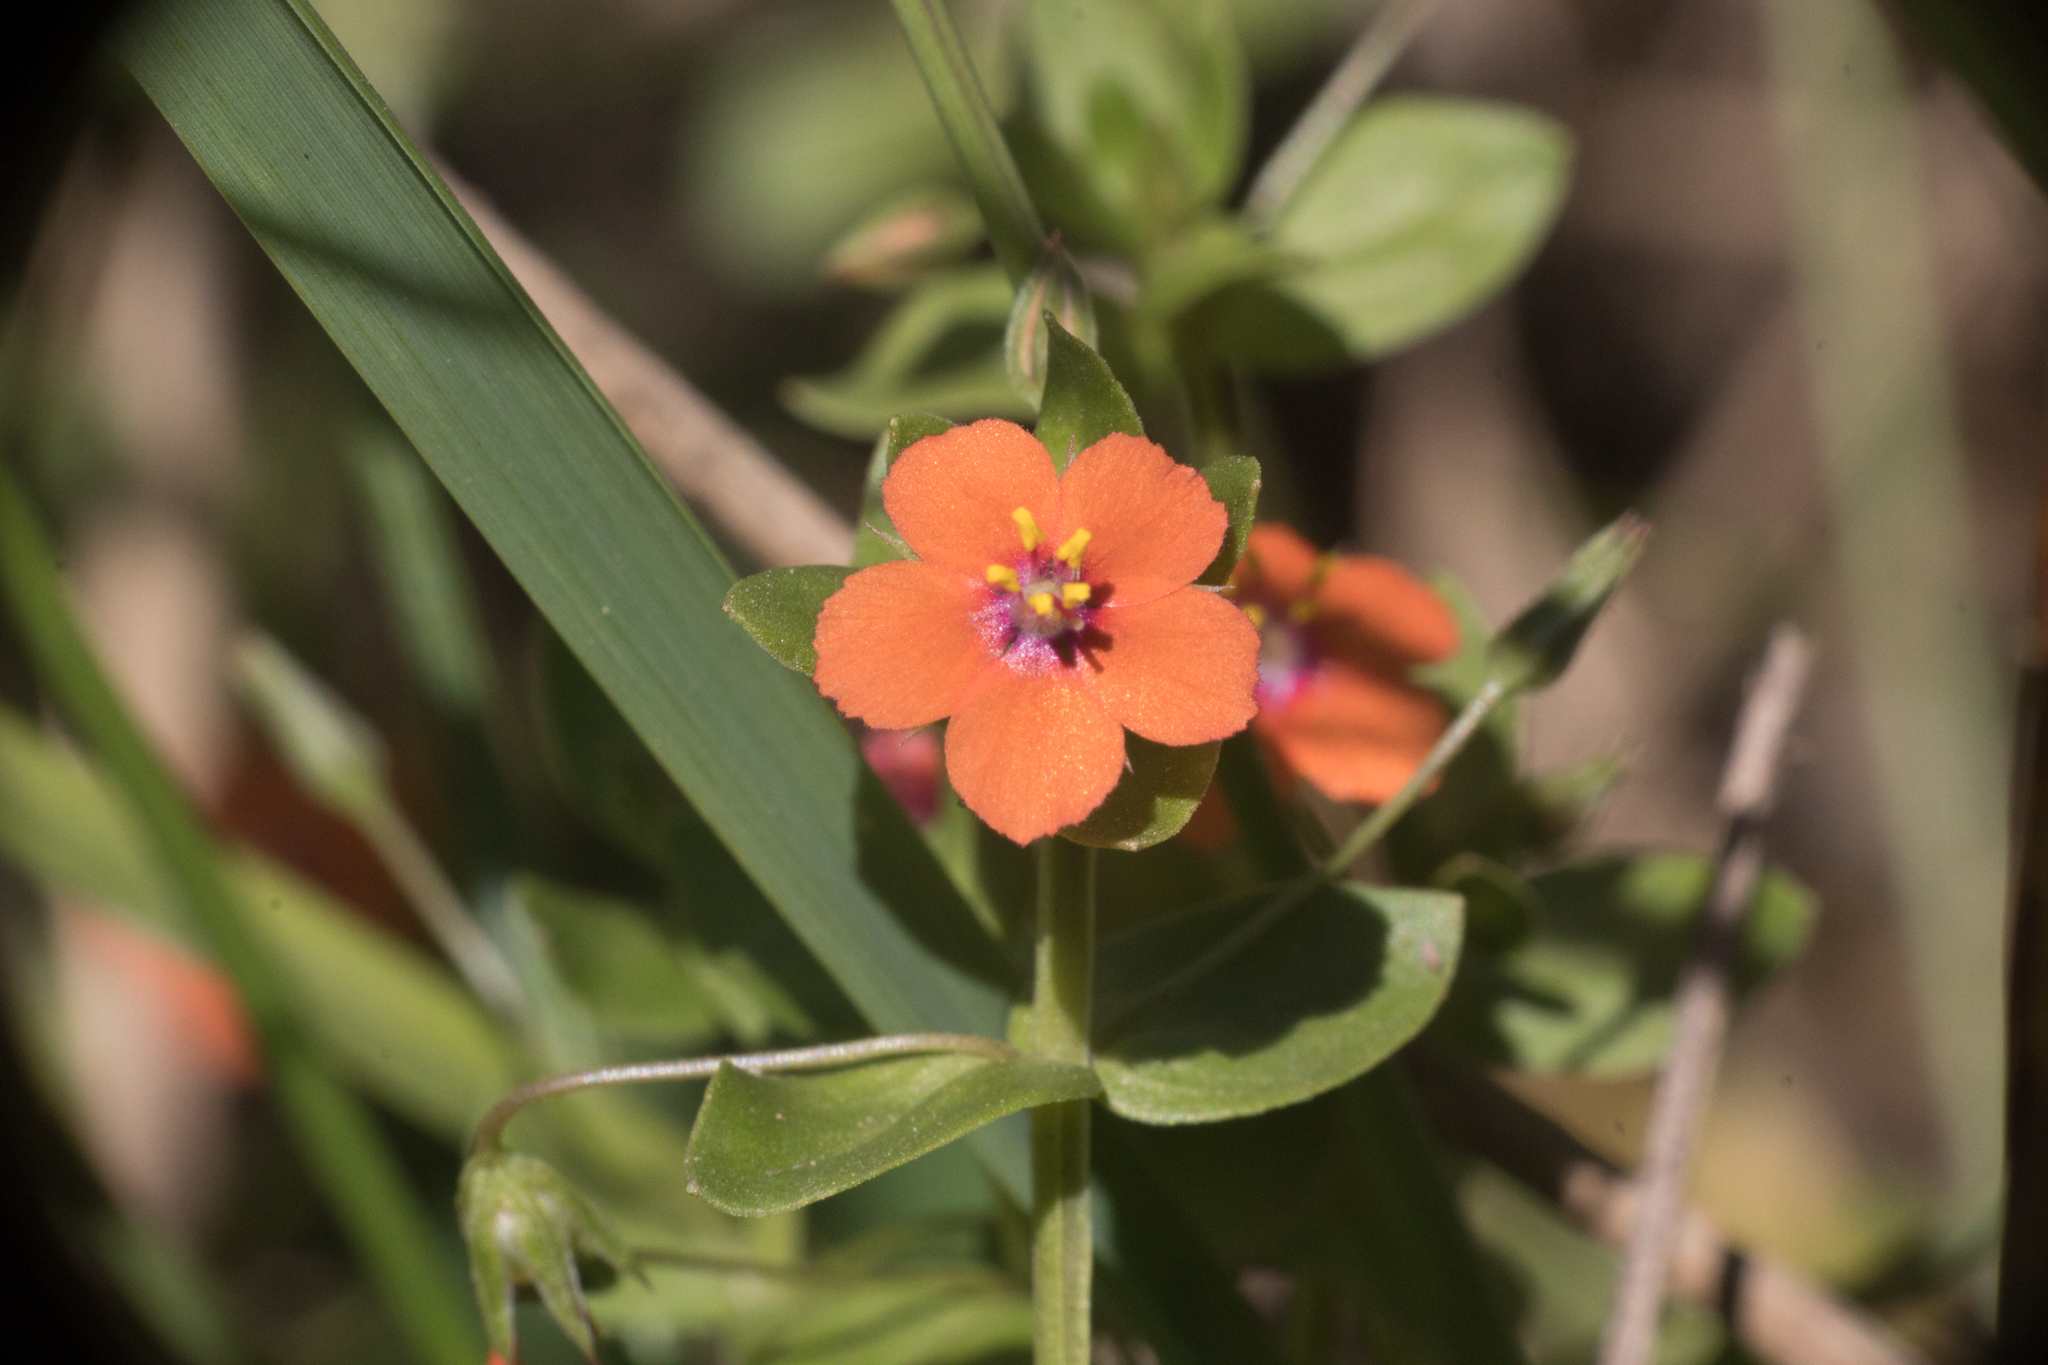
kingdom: Plantae
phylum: Tracheophyta
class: Magnoliopsida
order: Ericales
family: Primulaceae
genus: Lysimachia
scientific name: Lysimachia arvensis
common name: Scarlet pimpernel
